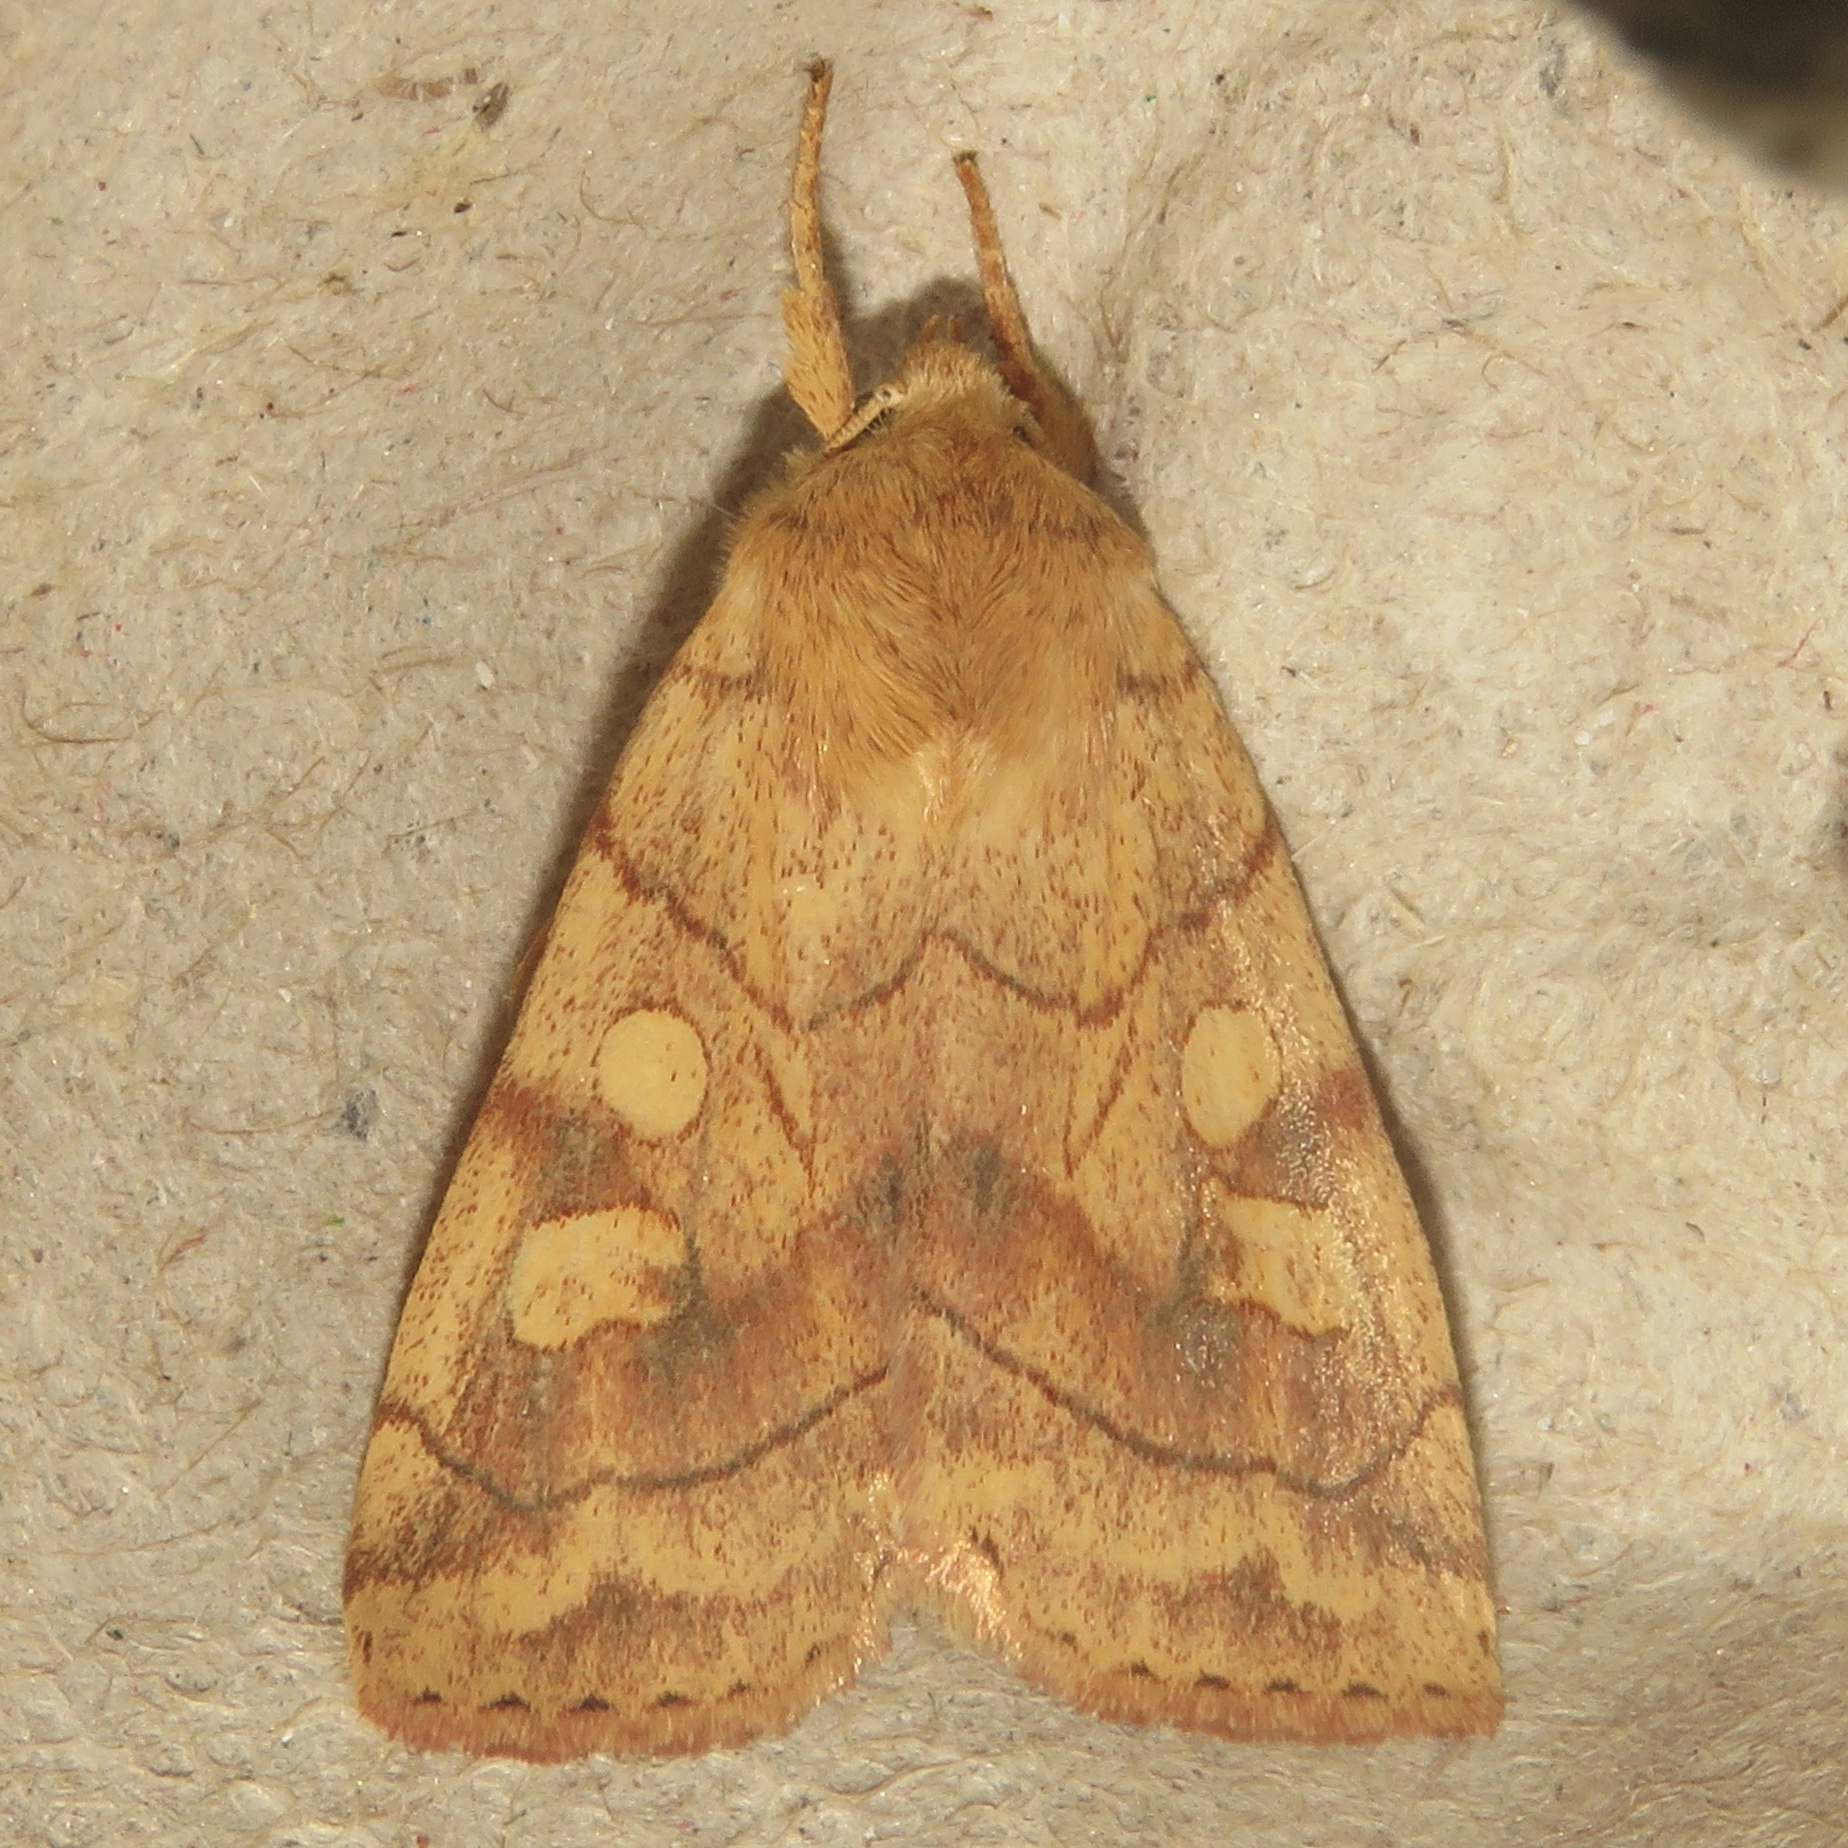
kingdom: Animalia
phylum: Arthropoda
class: Insecta
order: Lepidoptera
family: Noctuidae
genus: Enargia
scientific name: Enargia decolor
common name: Aspen twoleaf tier moth
